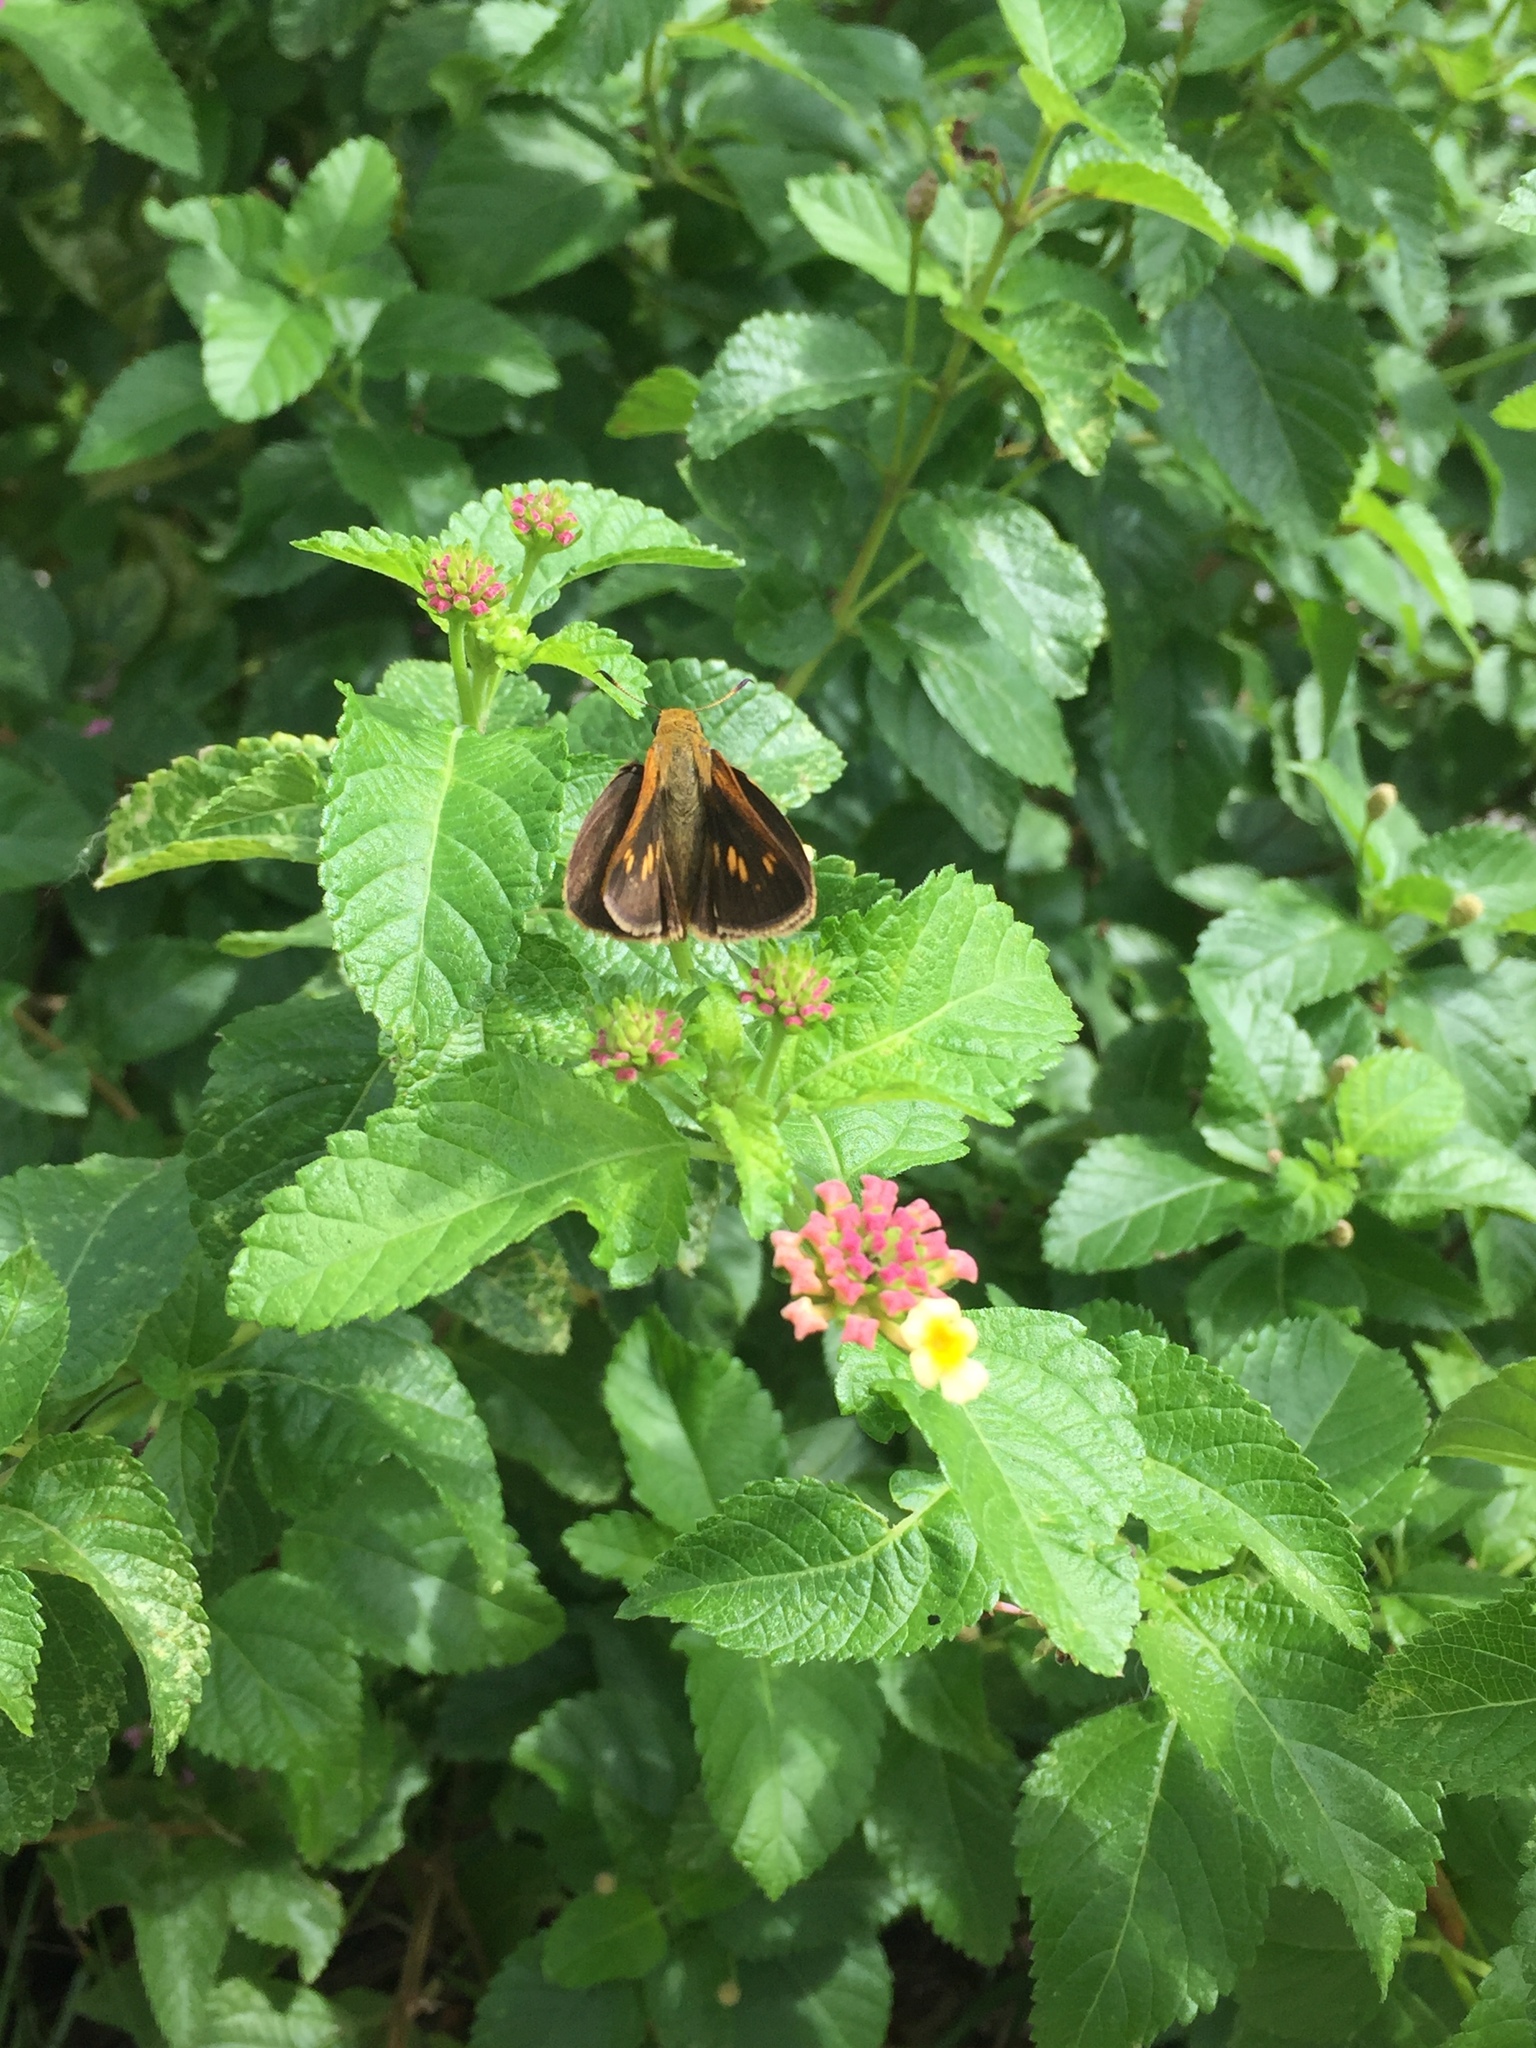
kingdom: Animalia
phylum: Arthropoda
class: Insecta
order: Lepidoptera
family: Hesperiidae
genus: Euphyes
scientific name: Euphyes dion
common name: Dion skipper
